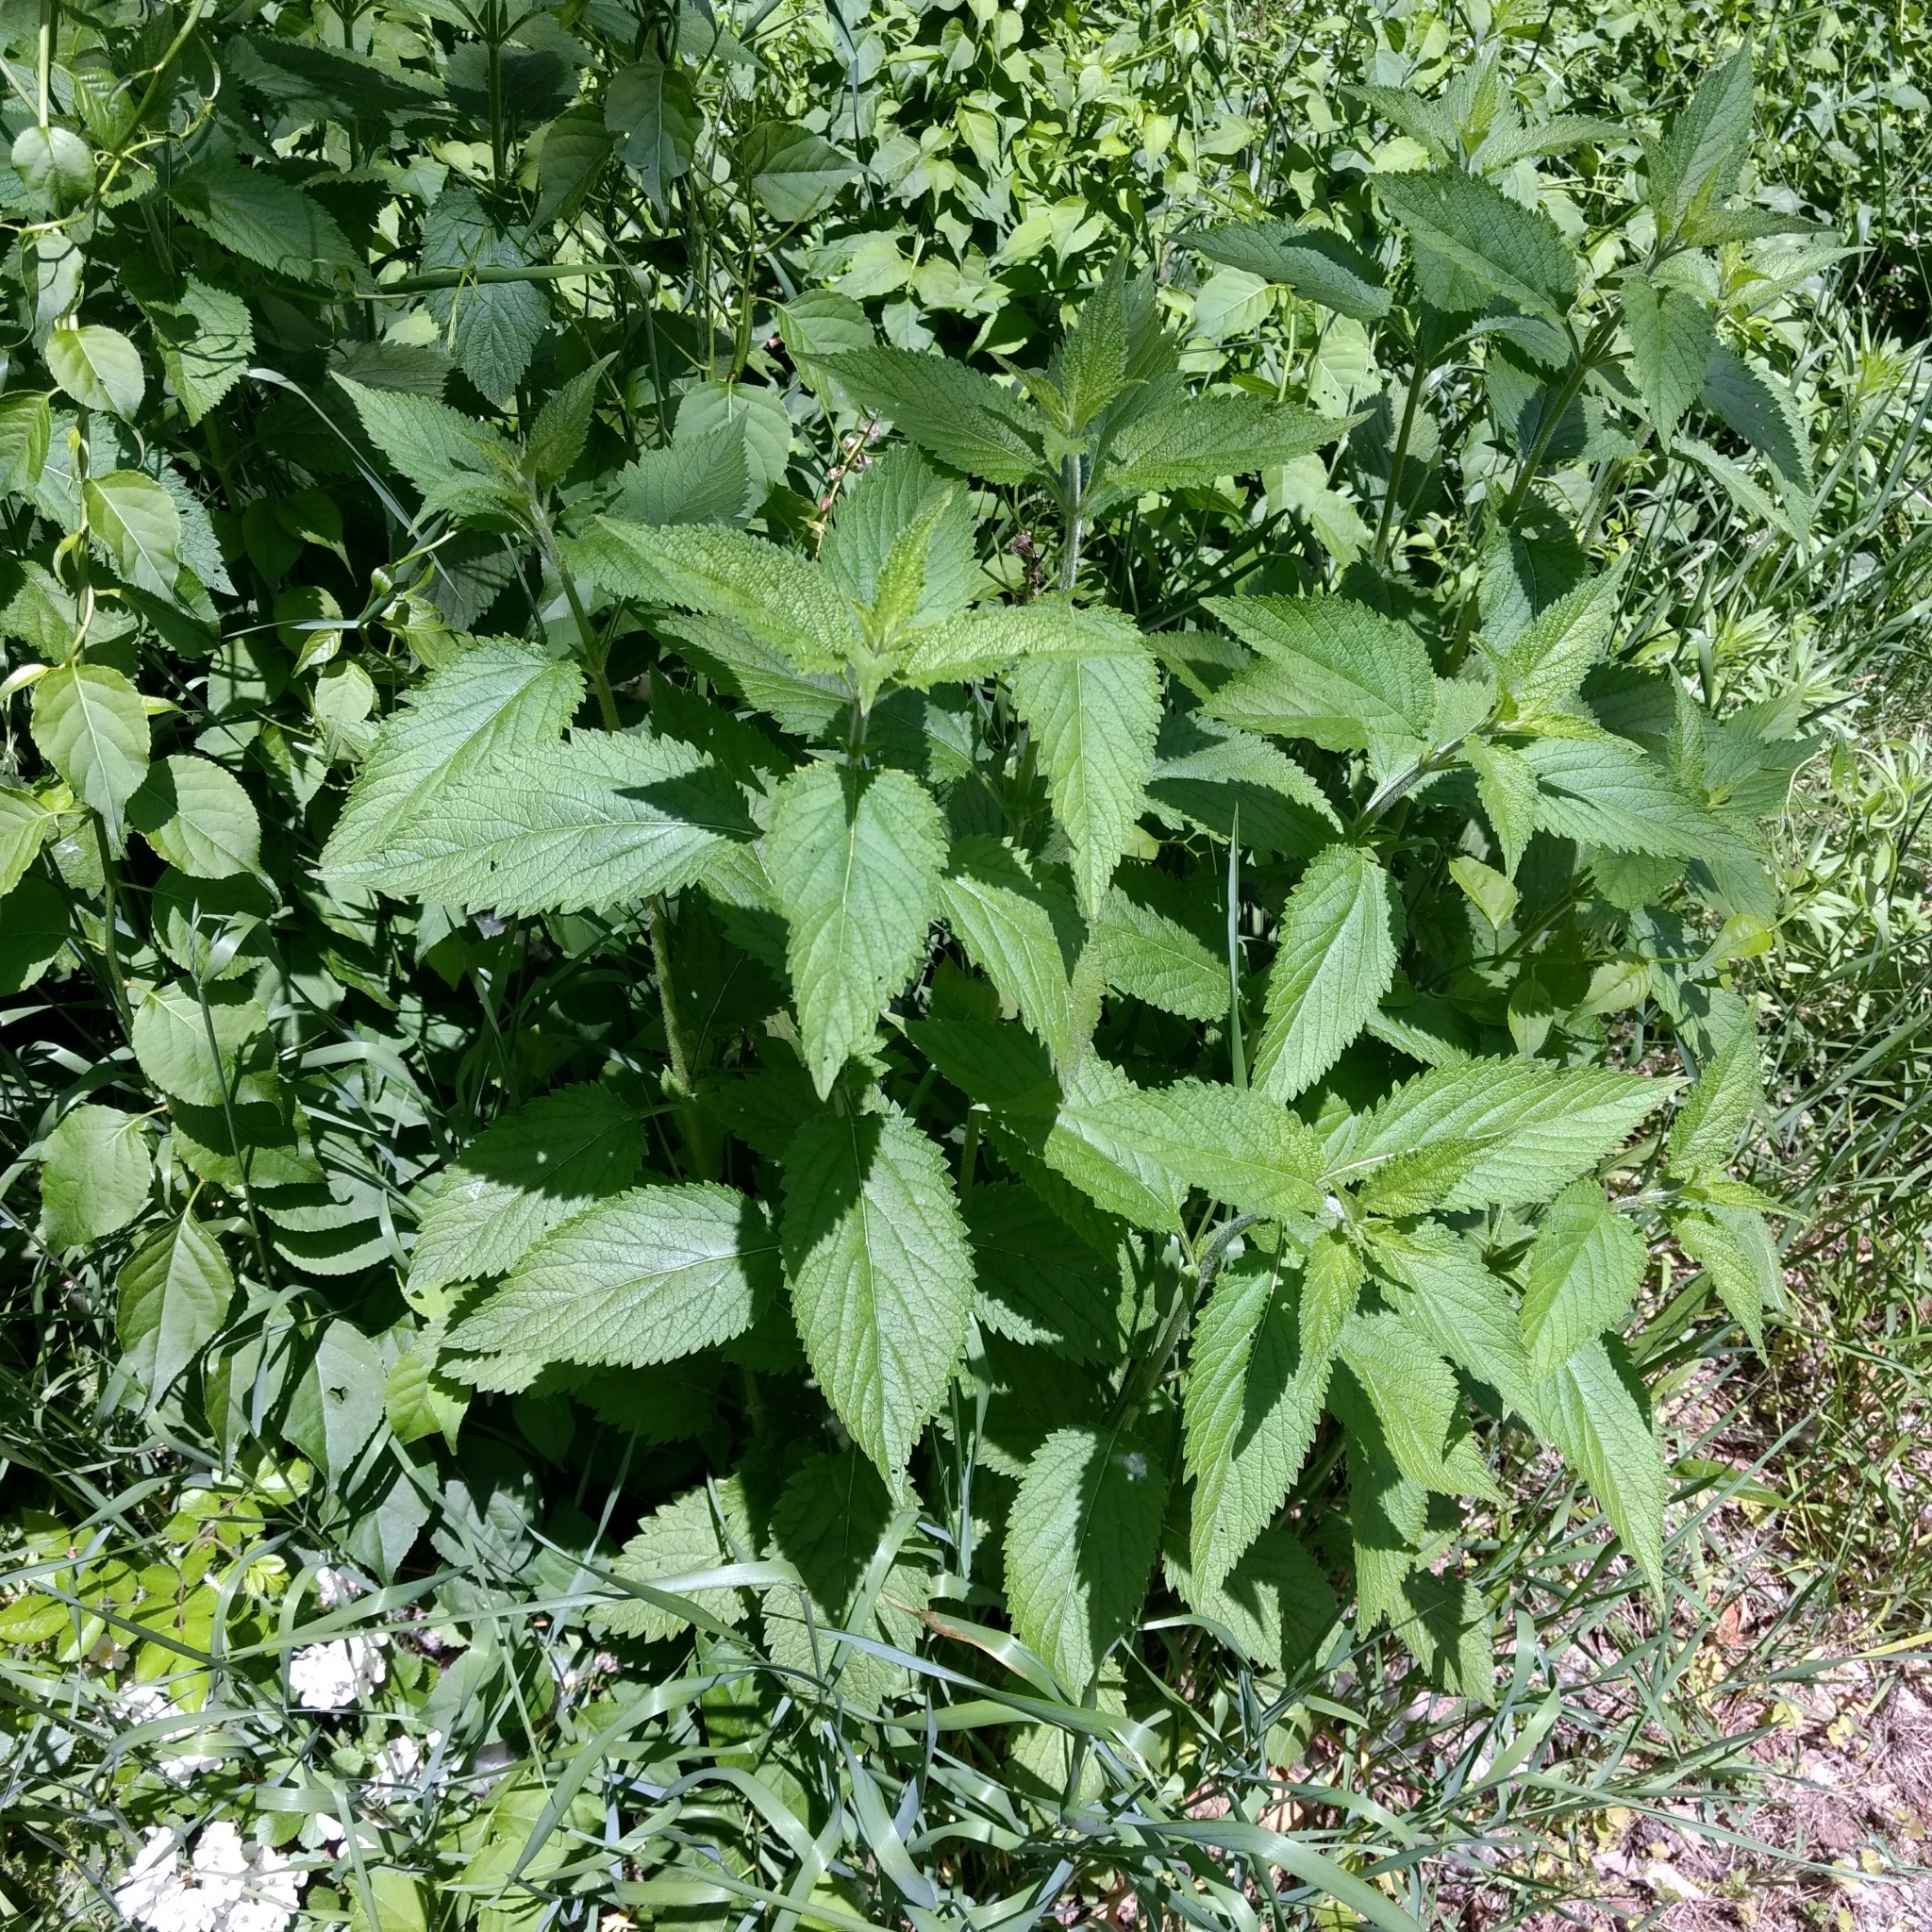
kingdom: Plantae
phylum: Tracheophyta
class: Magnoliopsida
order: Lamiales
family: Verbenaceae
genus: Verbena
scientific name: Verbena urticifolia
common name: Nettle-leaved vervain
